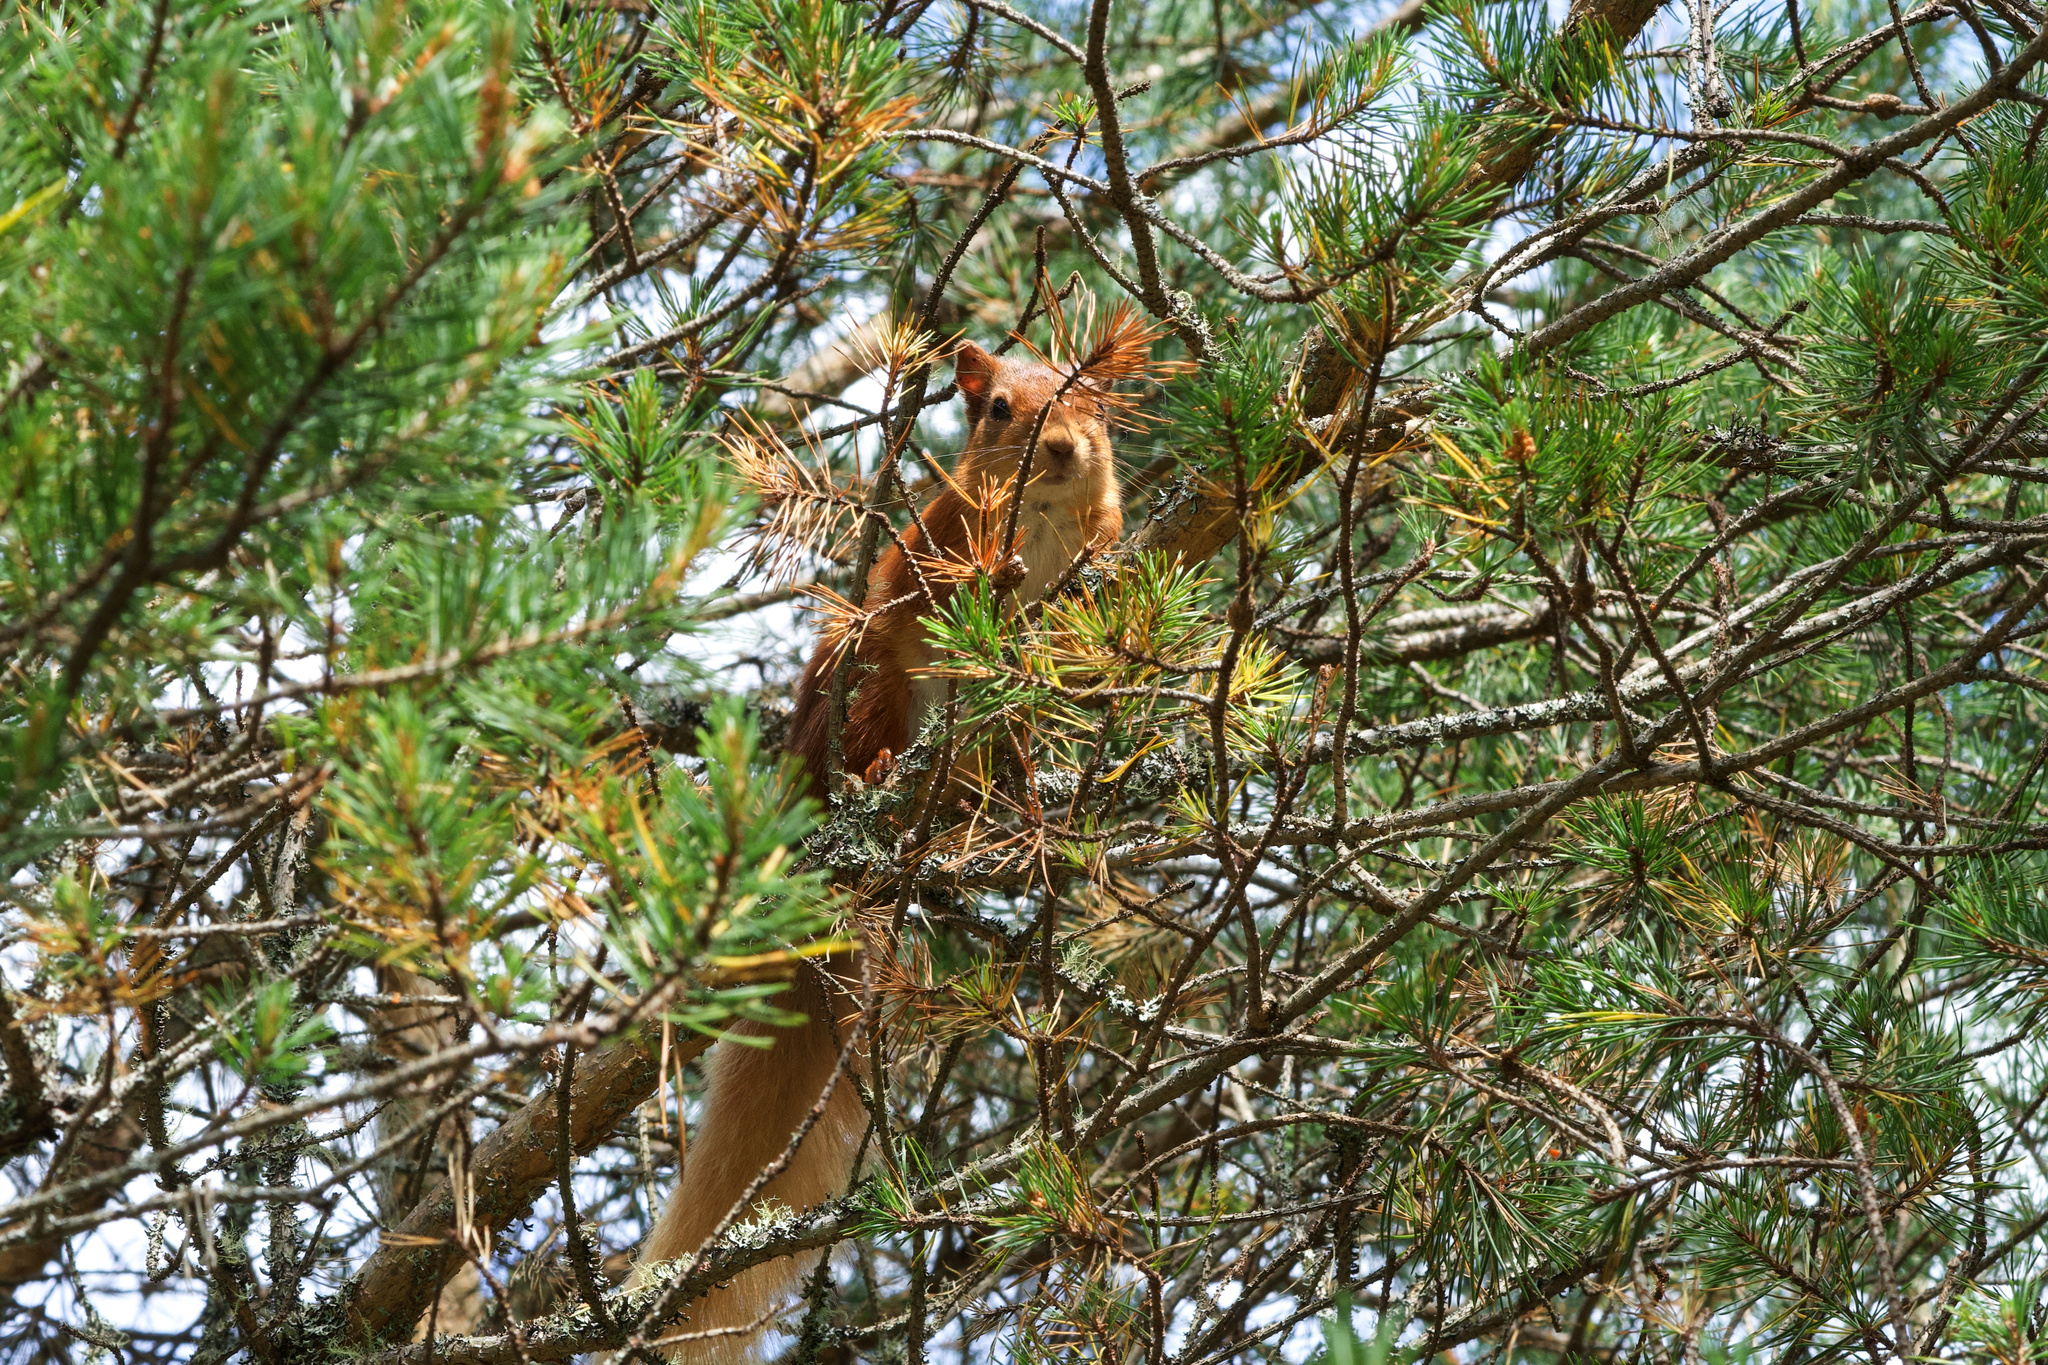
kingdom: Animalia
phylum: Chordata
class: Mammalia
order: Rodentia
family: Sciuridae
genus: Sciurus
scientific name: Sciurus vulgaris
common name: Eurasian red squirrel
